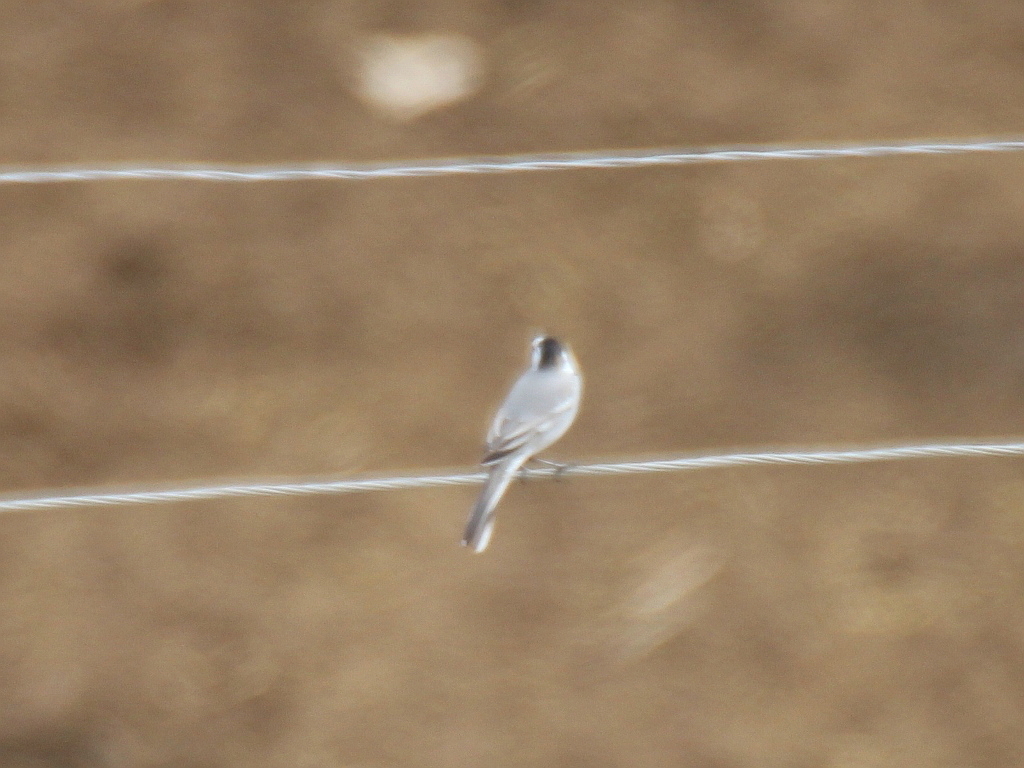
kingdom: Animalia
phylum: Chordata
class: Aves
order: Passeriformes
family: Motacillidae
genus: Motacilla
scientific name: Motacilla alba
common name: White wagtail
